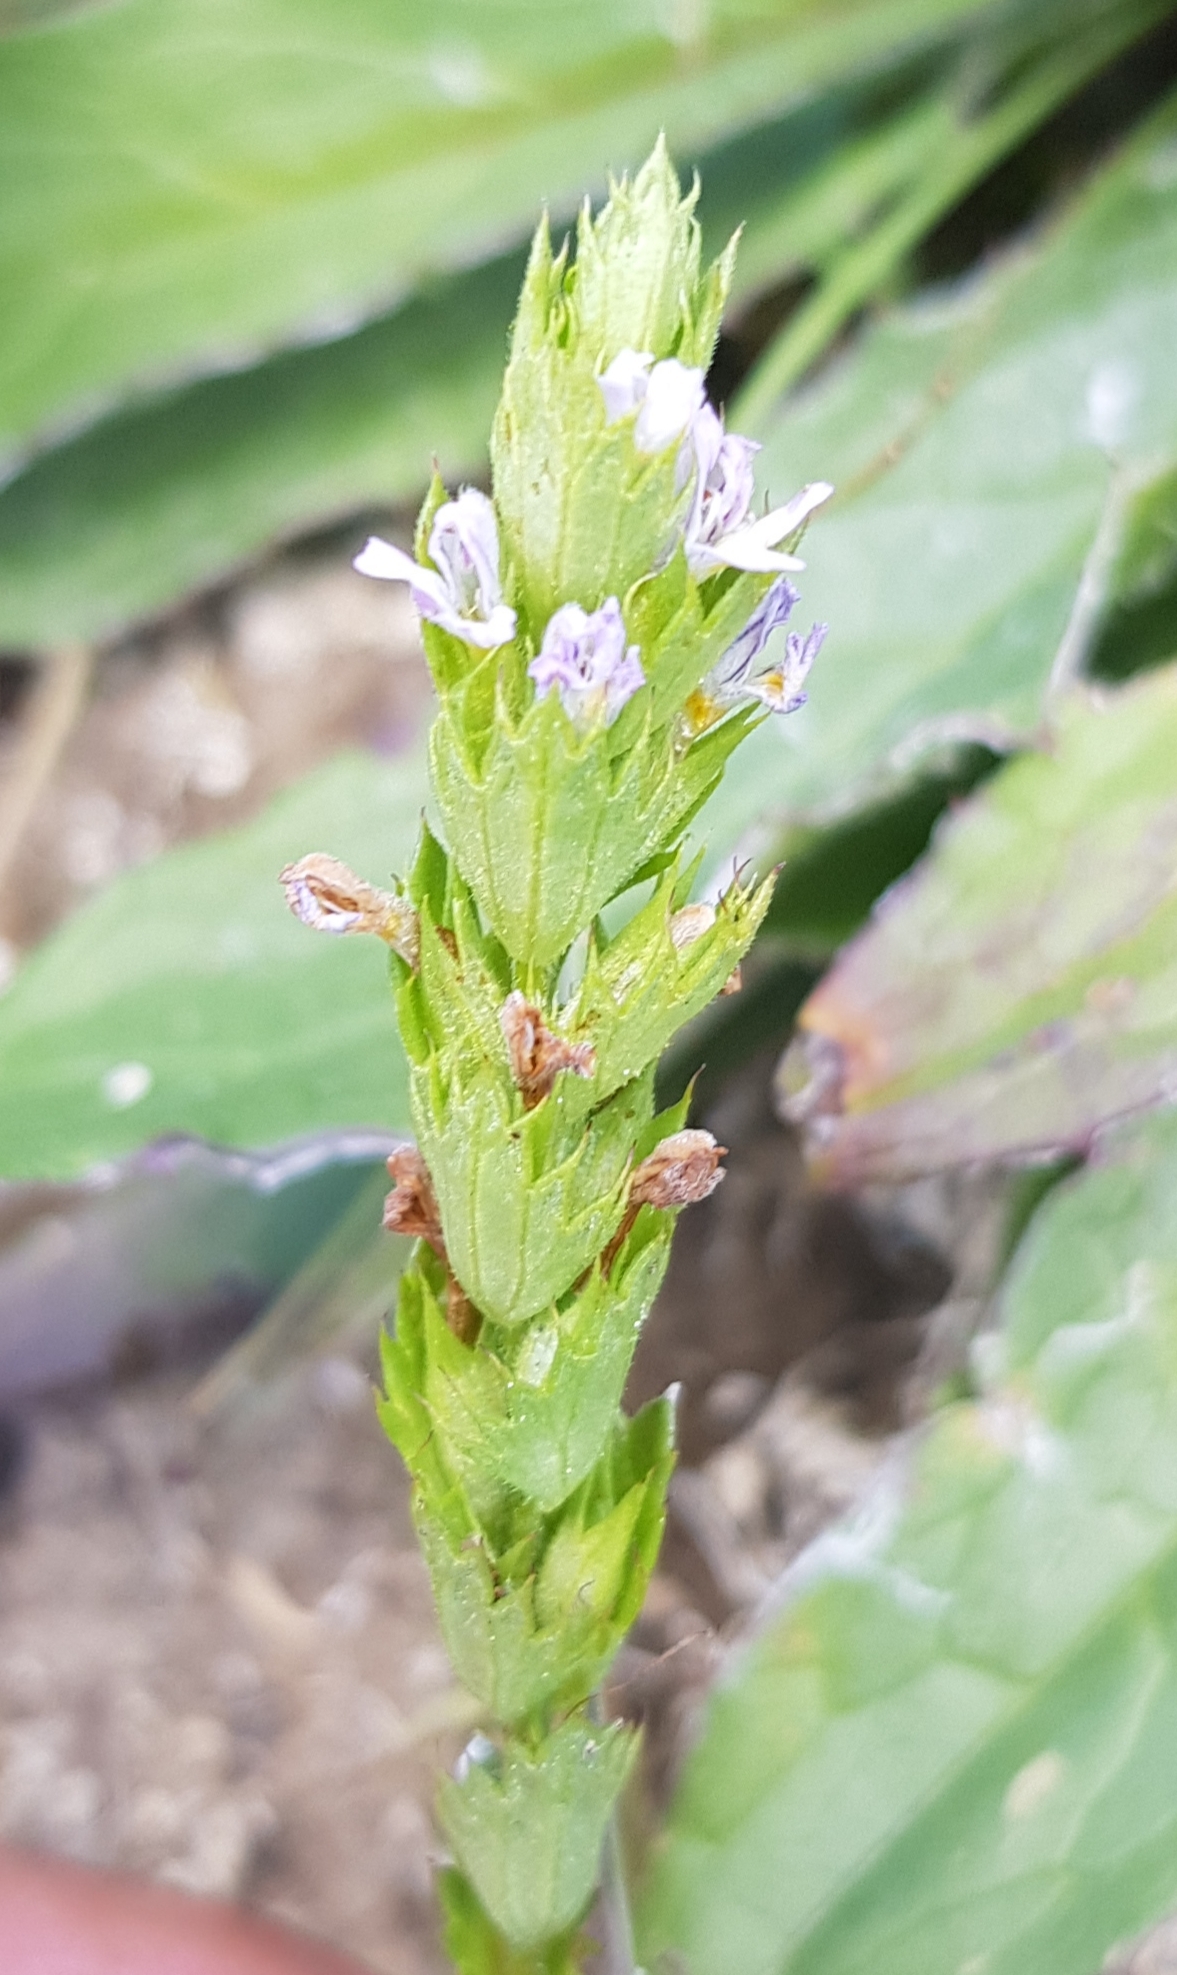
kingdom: Plantae
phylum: Tracheophyta
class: Magnoliopsida
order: Lamiales
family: Orobanchaceae
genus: Euphrasia
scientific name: Euphrasia stricta
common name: Drug eyebright
